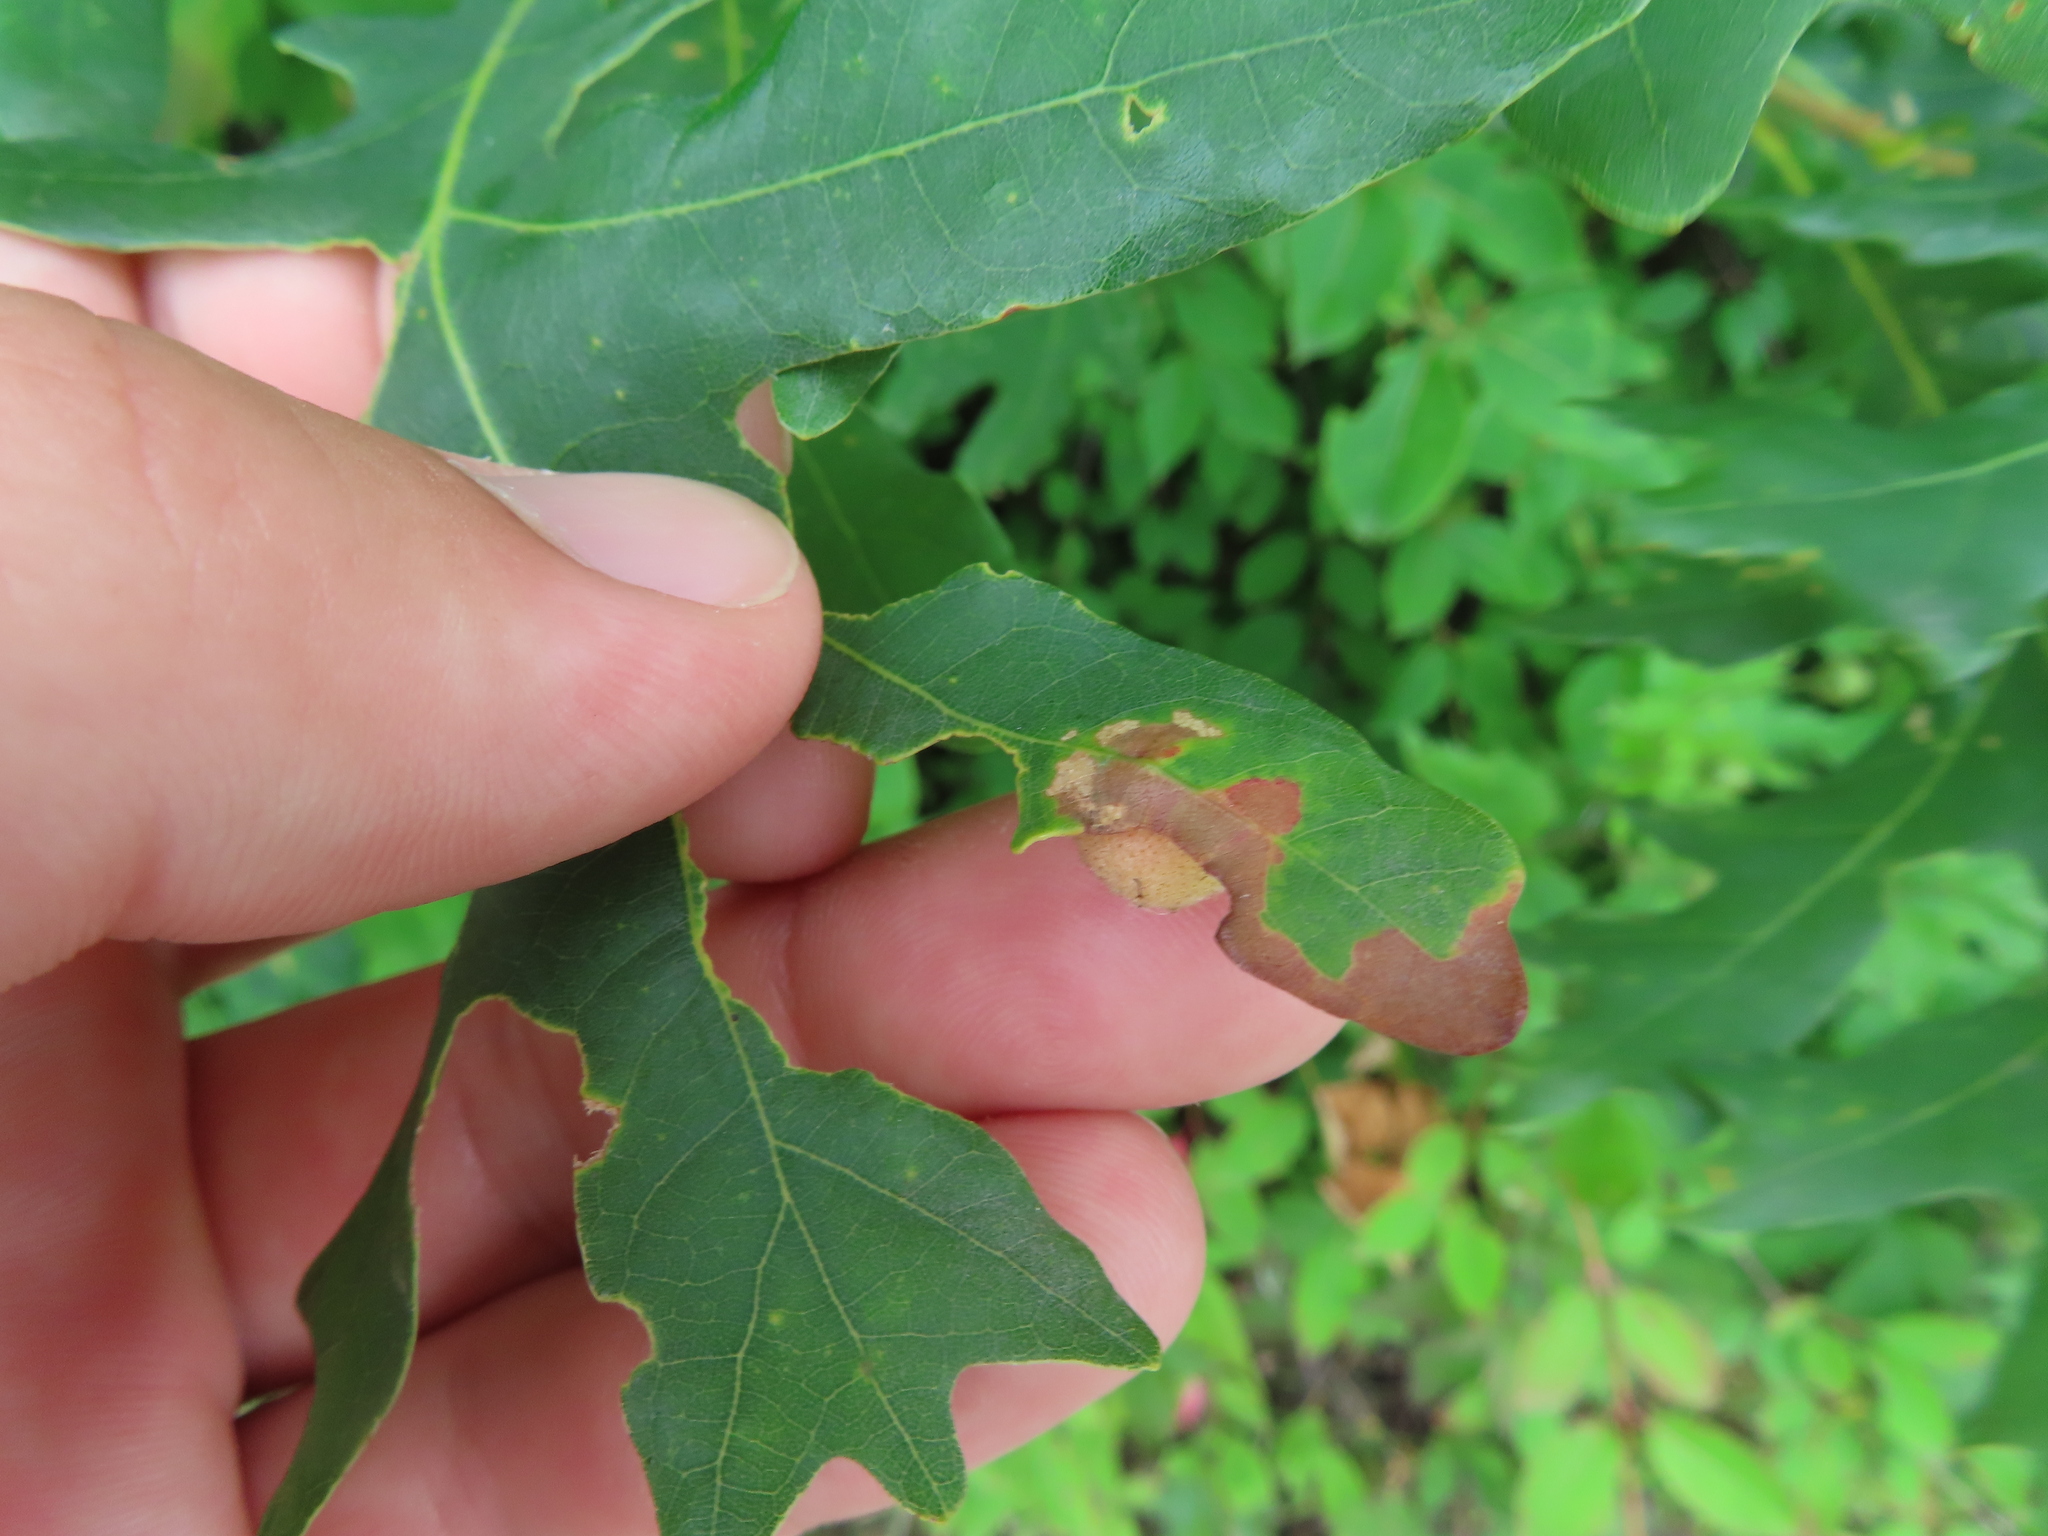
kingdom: Animalia
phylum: Arthropoda
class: Insecta
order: Hymenoptera
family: Cynipidae
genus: Philonix
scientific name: Philonix fulvicollis
